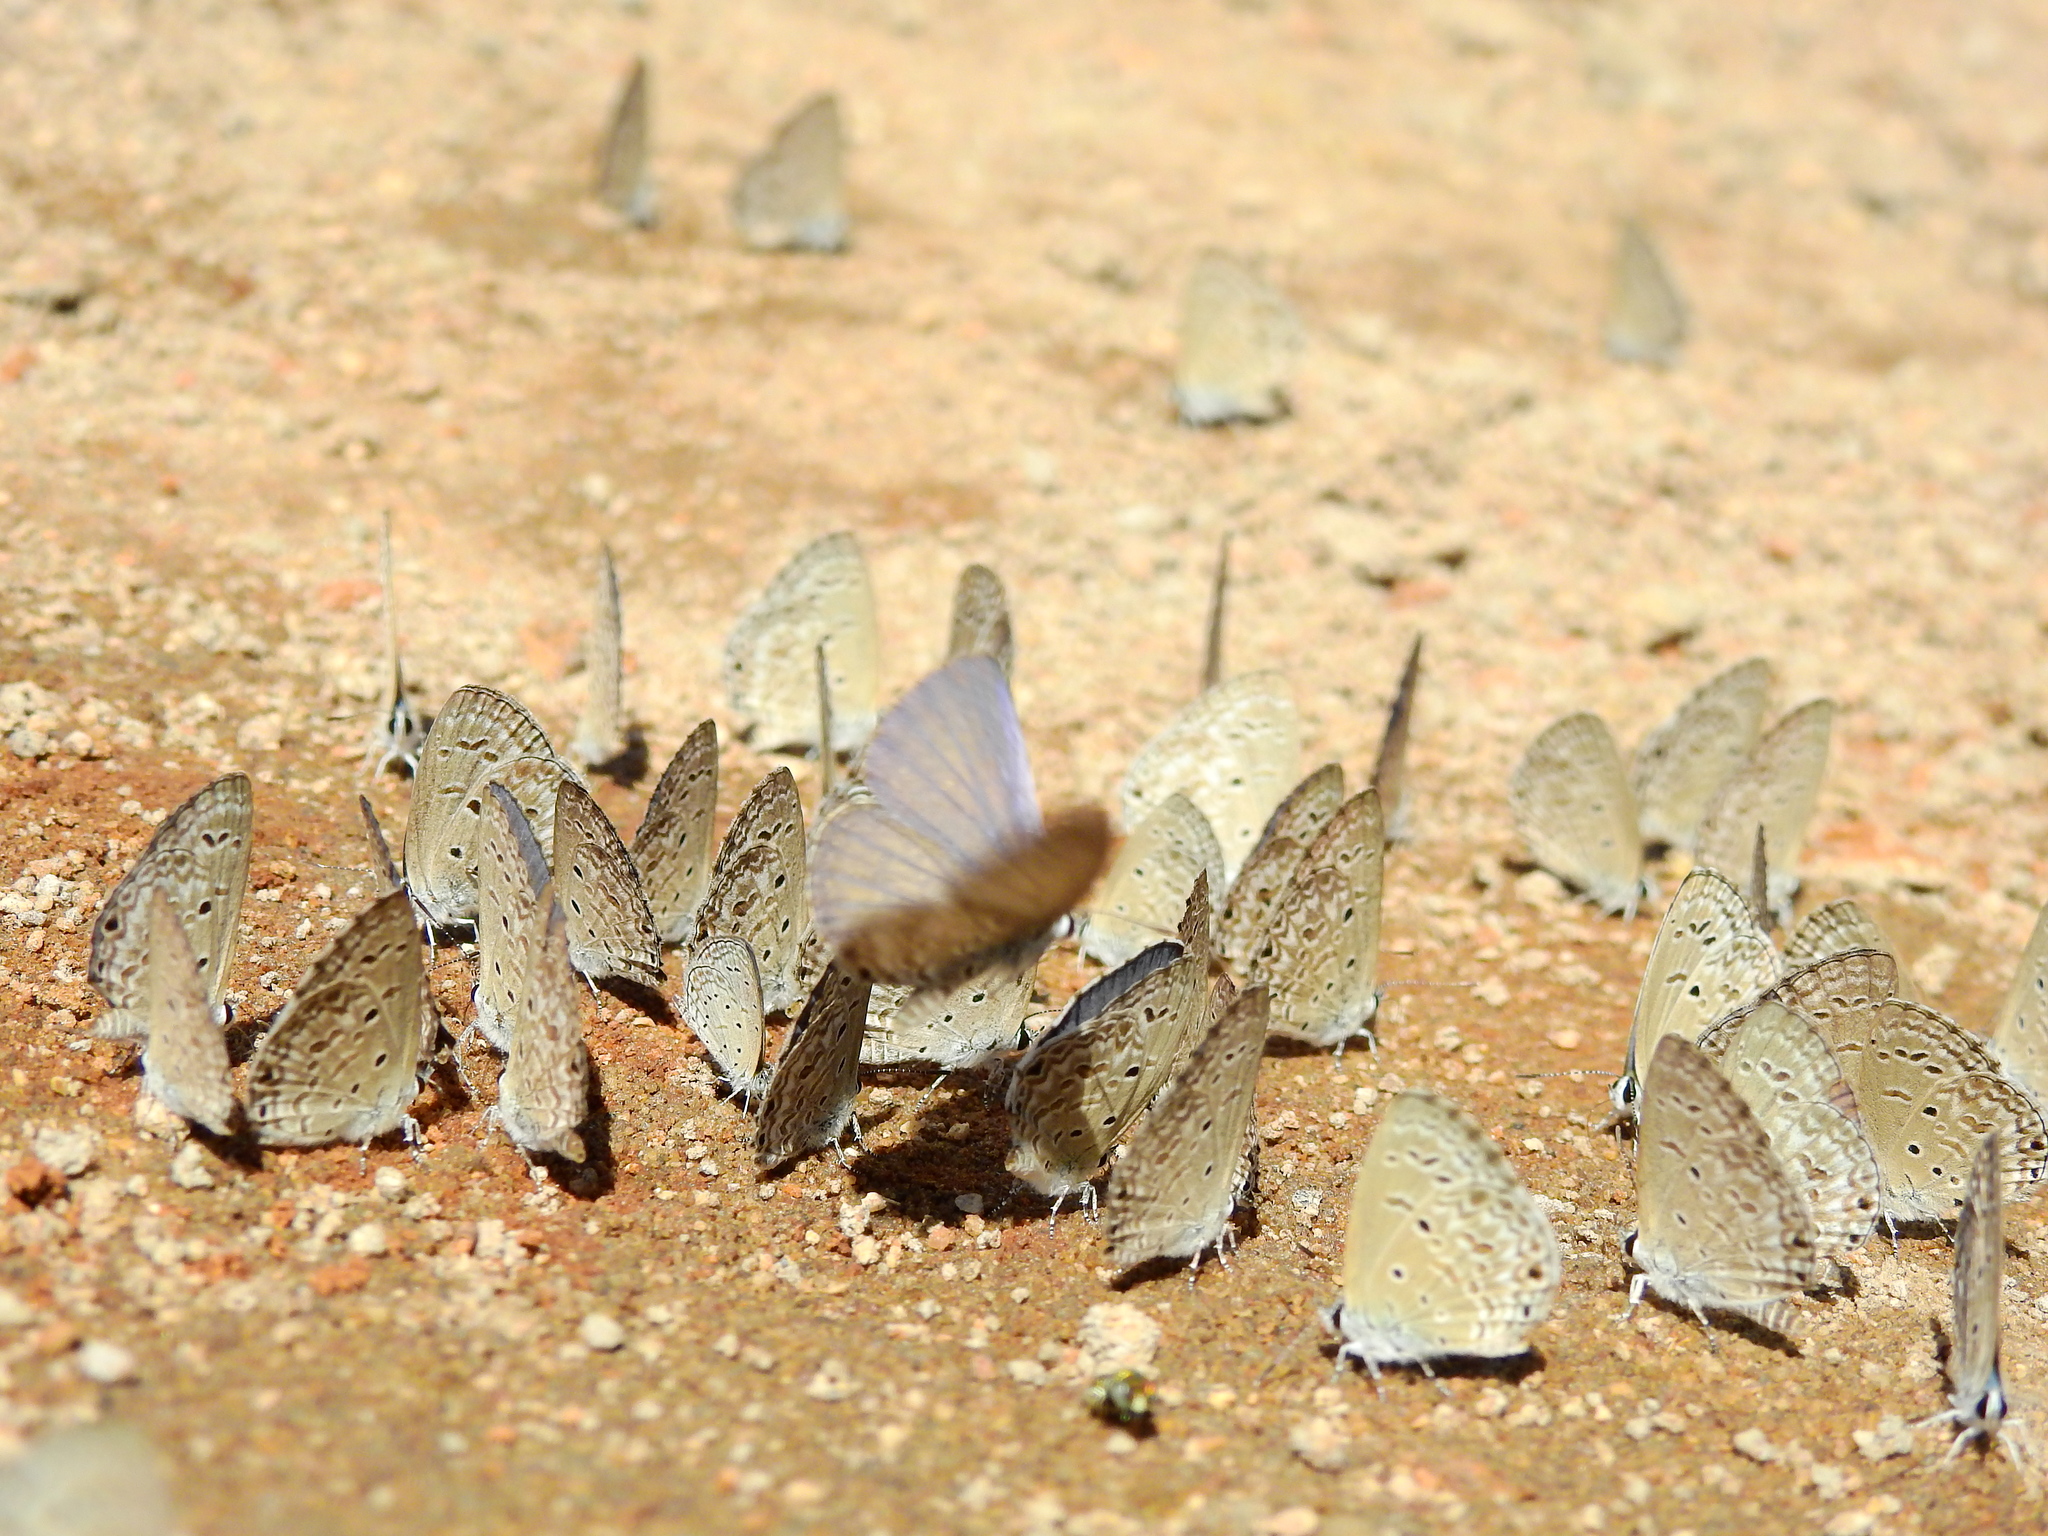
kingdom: Animalia
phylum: Arthropoda
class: Insecta
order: Lepidoptera
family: Lycaenidae
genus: Chilades
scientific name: Chilades laius
